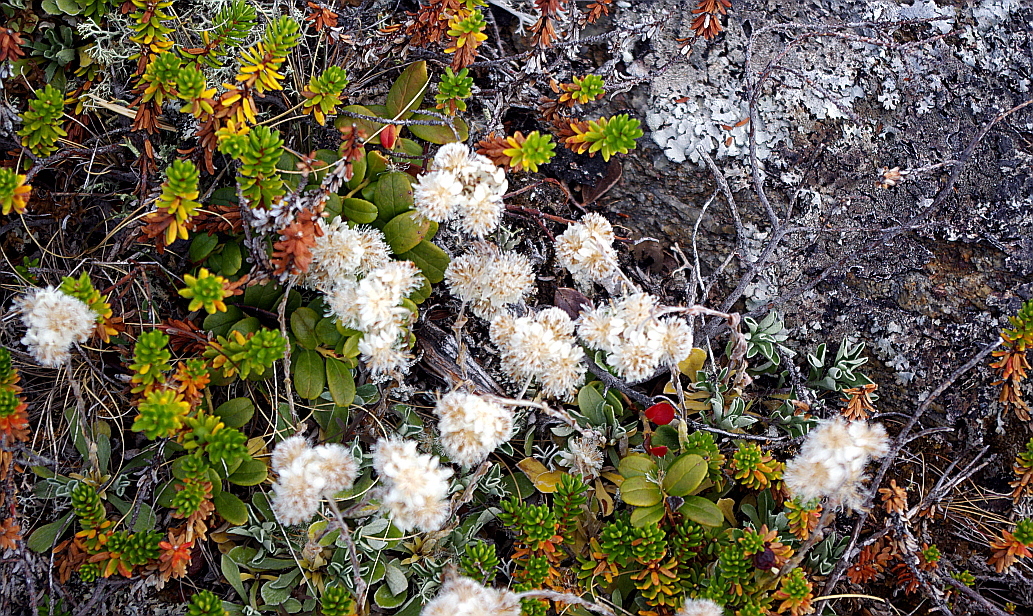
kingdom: Plantae
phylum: Tracheophyta
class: Magnoliopsida
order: Asterales
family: Asteraceae
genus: Antennaria
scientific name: Antennaria dioica
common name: Mountain everlasting
